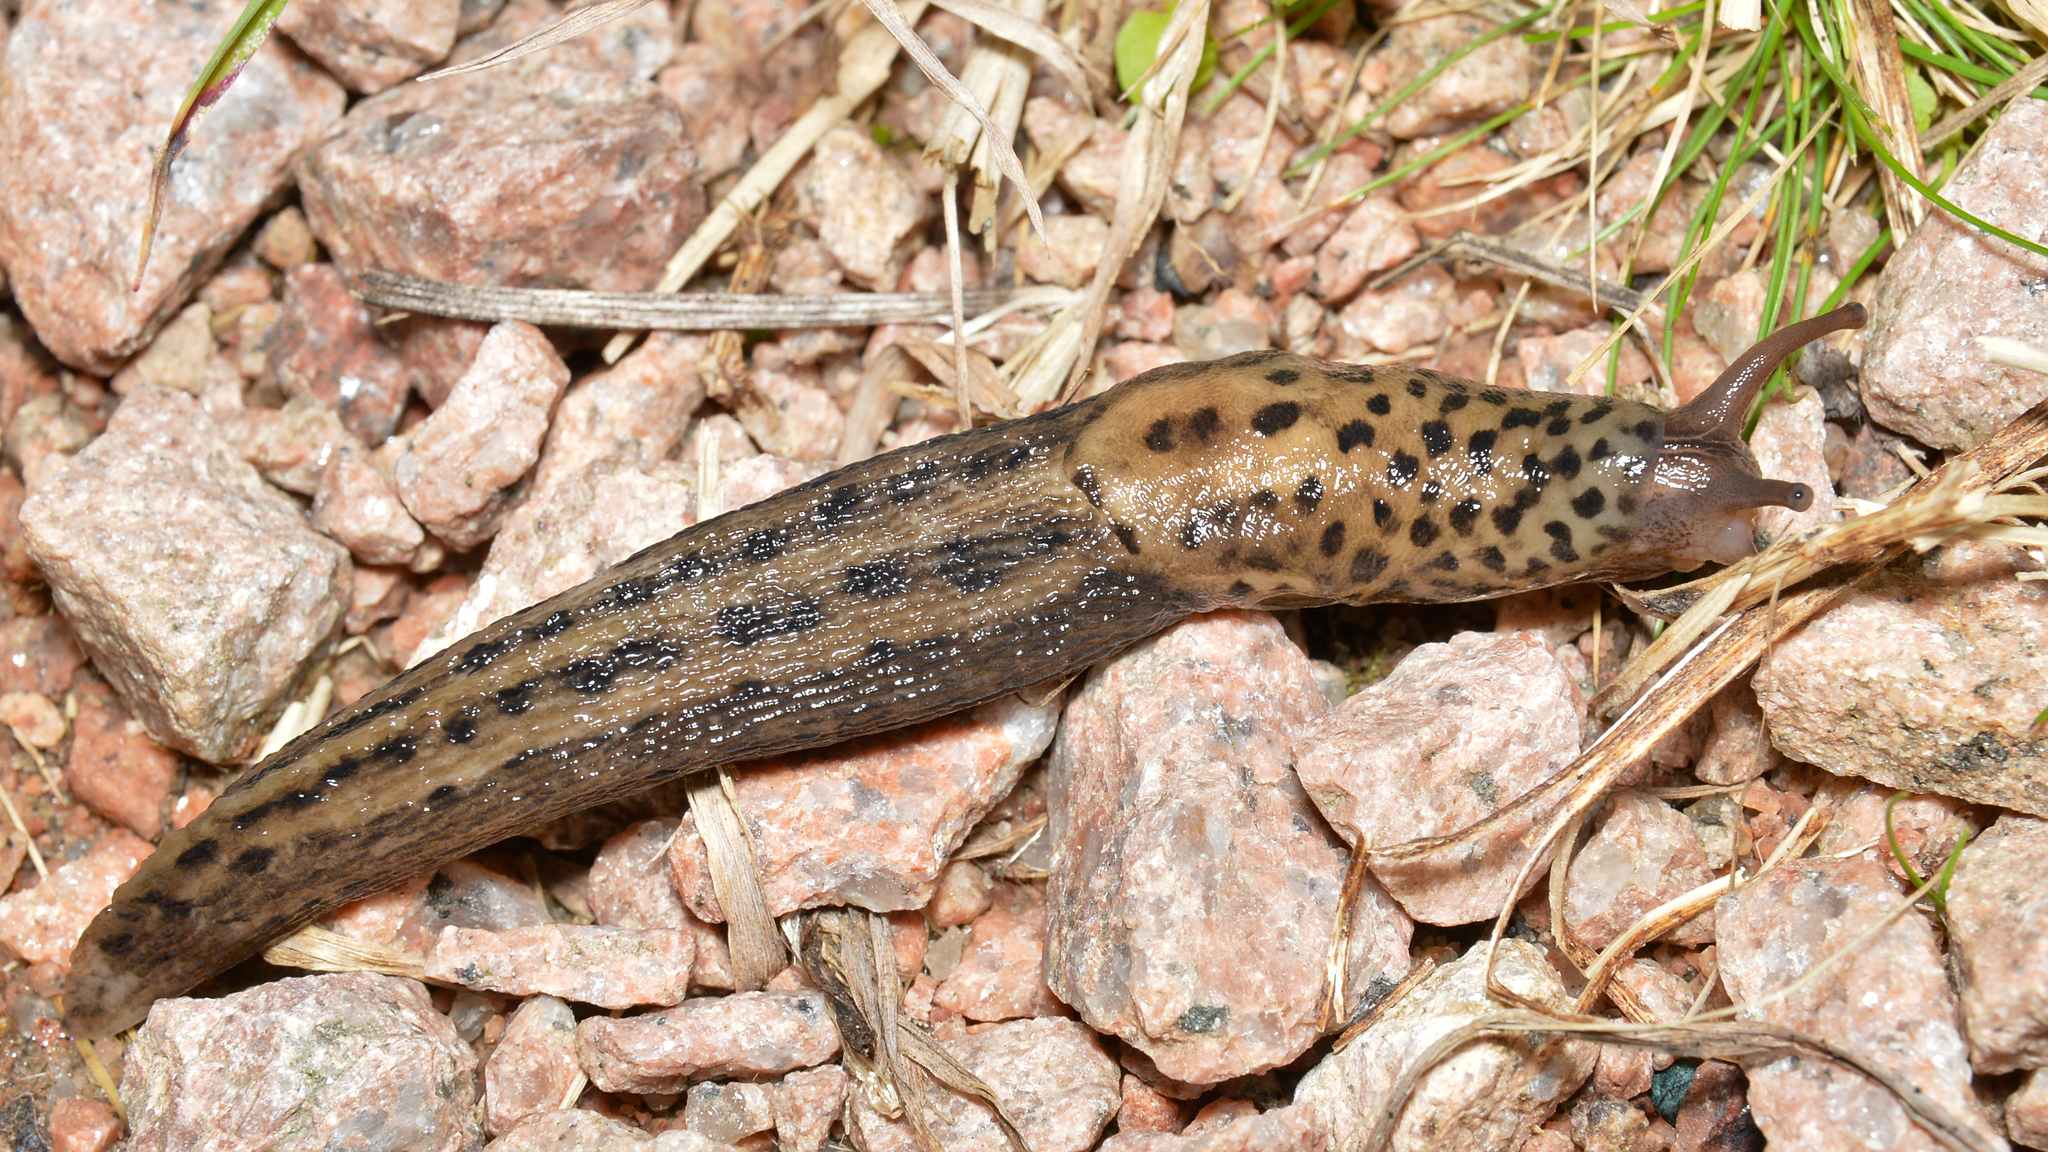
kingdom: Animalia
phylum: Mollusca
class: Gastropoda
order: Stylommatophora
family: Limacidae
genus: Limax
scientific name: Limax maximus
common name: Great grey slug
